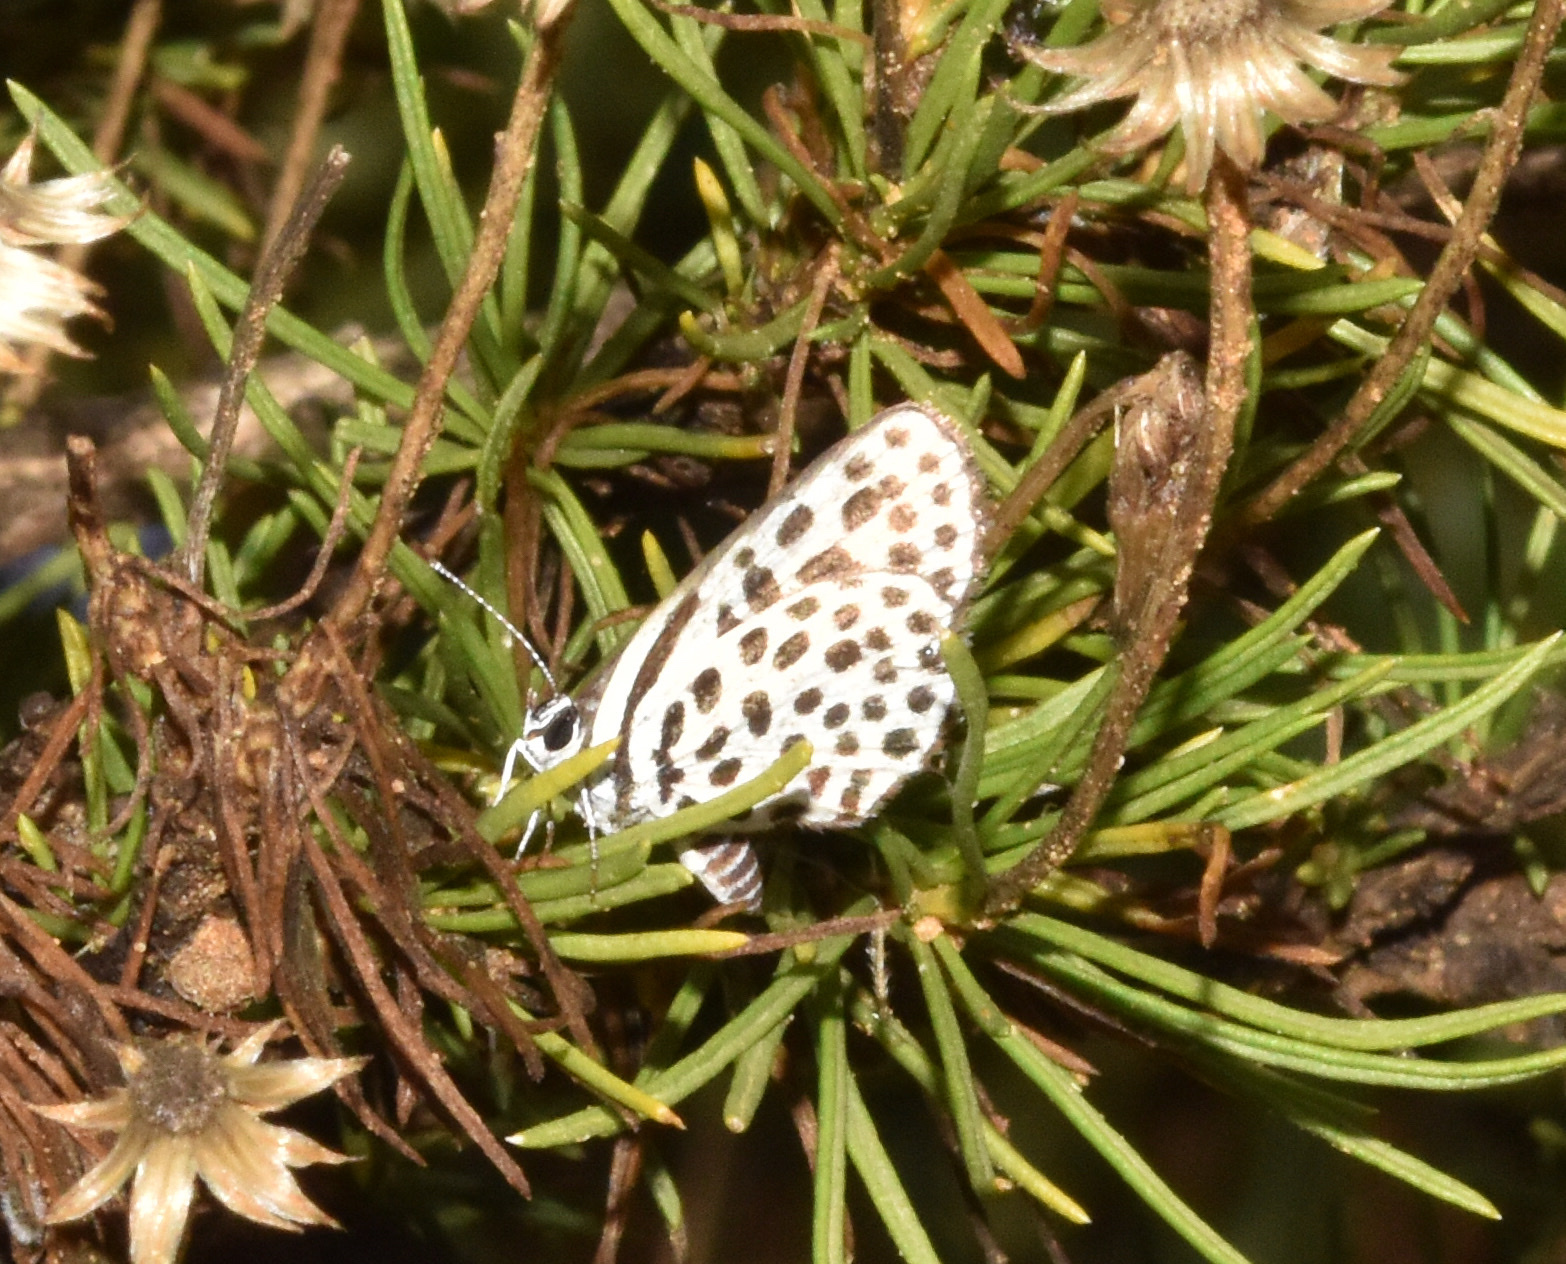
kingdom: Animalia
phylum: Arthropoda
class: Insecta
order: Lepidoptera
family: Lycaenidae
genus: Tarucus
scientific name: Tarucus sybaris
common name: Dotted blue
